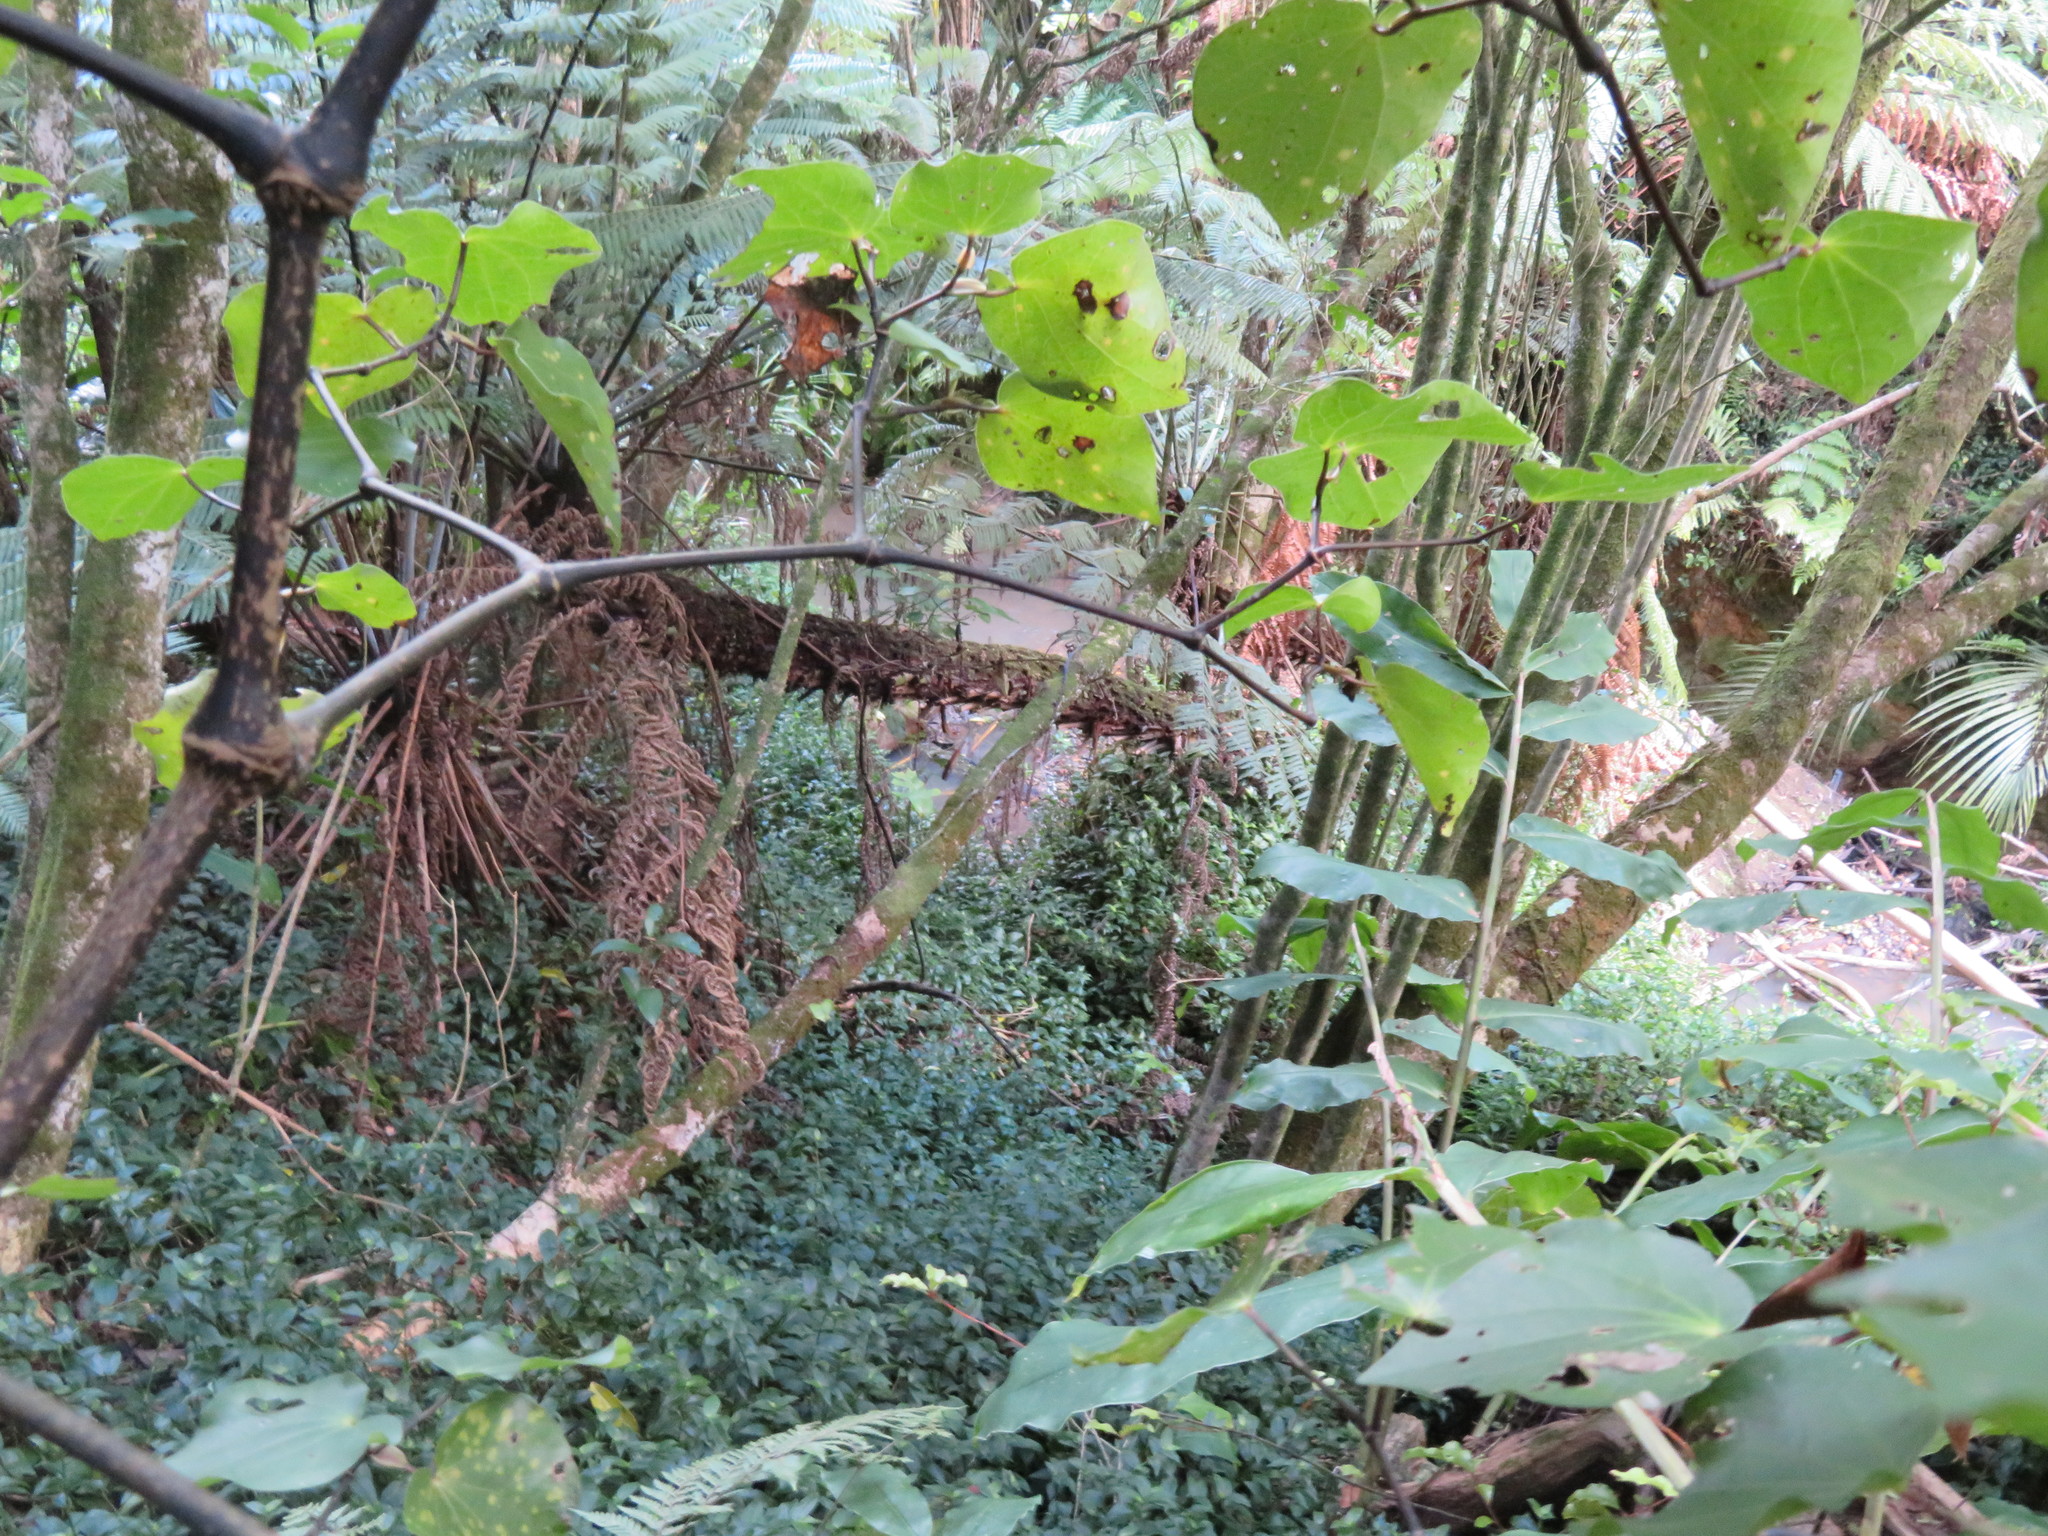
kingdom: Plantae
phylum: Tracheophyta
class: Magnoliopsida
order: Piperales
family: Piperaceae
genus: Macropiper
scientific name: Macropiper excelsum
